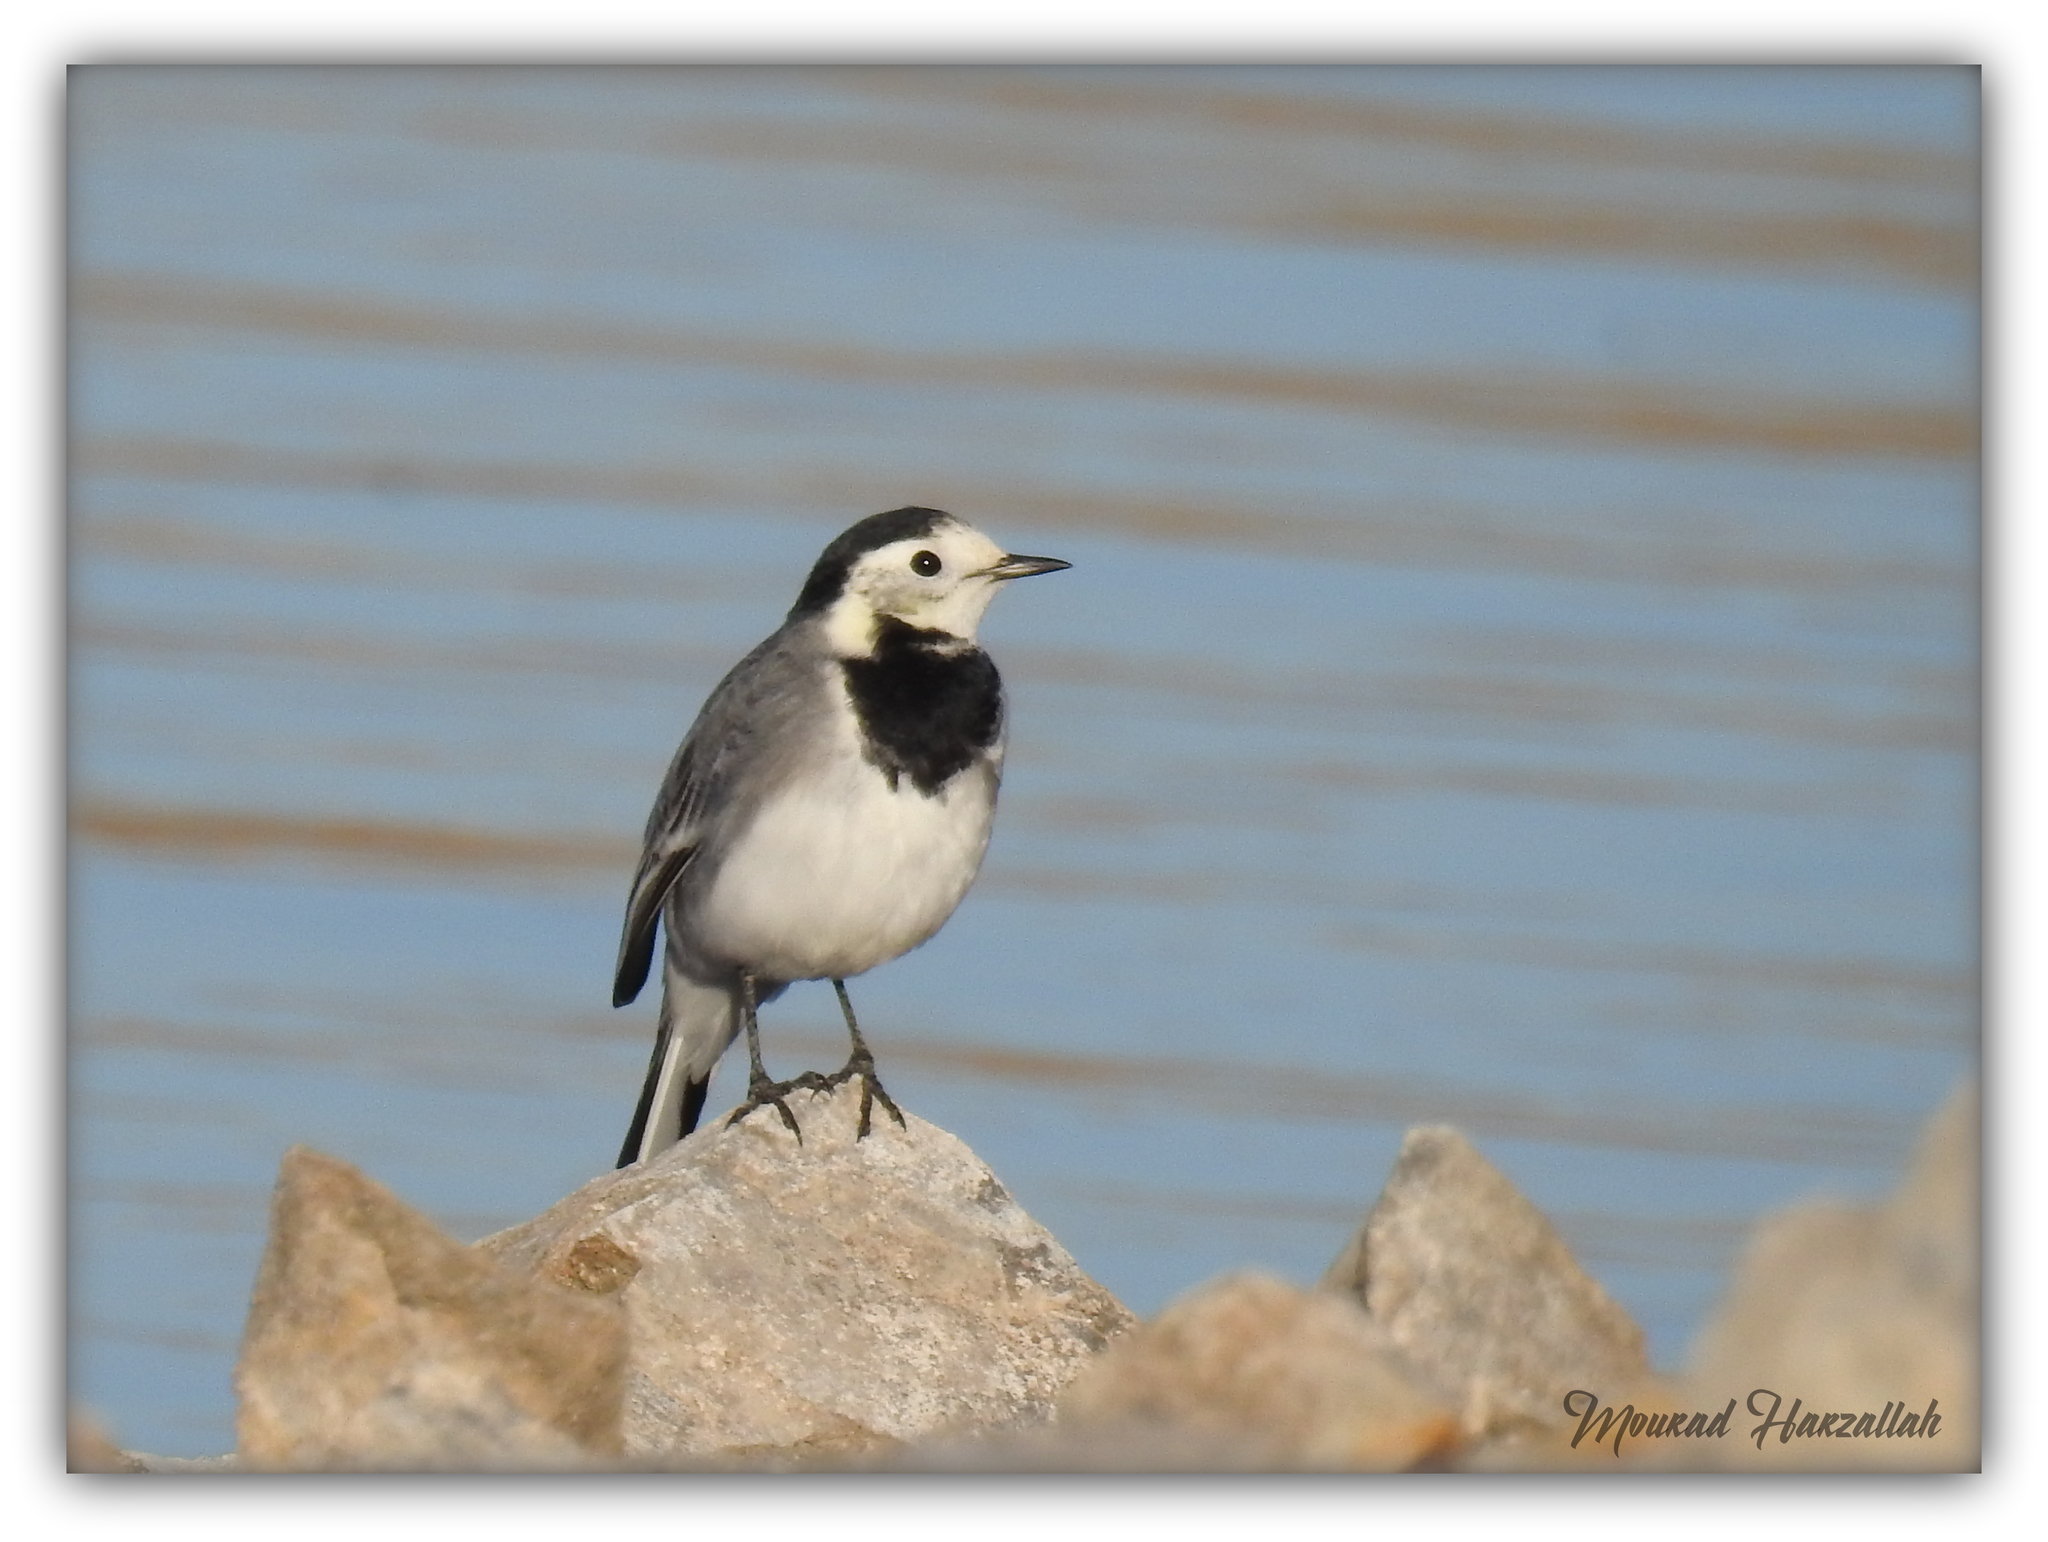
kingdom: Animalia
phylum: Chordata
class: Aves
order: Passeriformes
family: Motacillidae
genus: Motacilla
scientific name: Motacilla alba
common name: White wagtail
